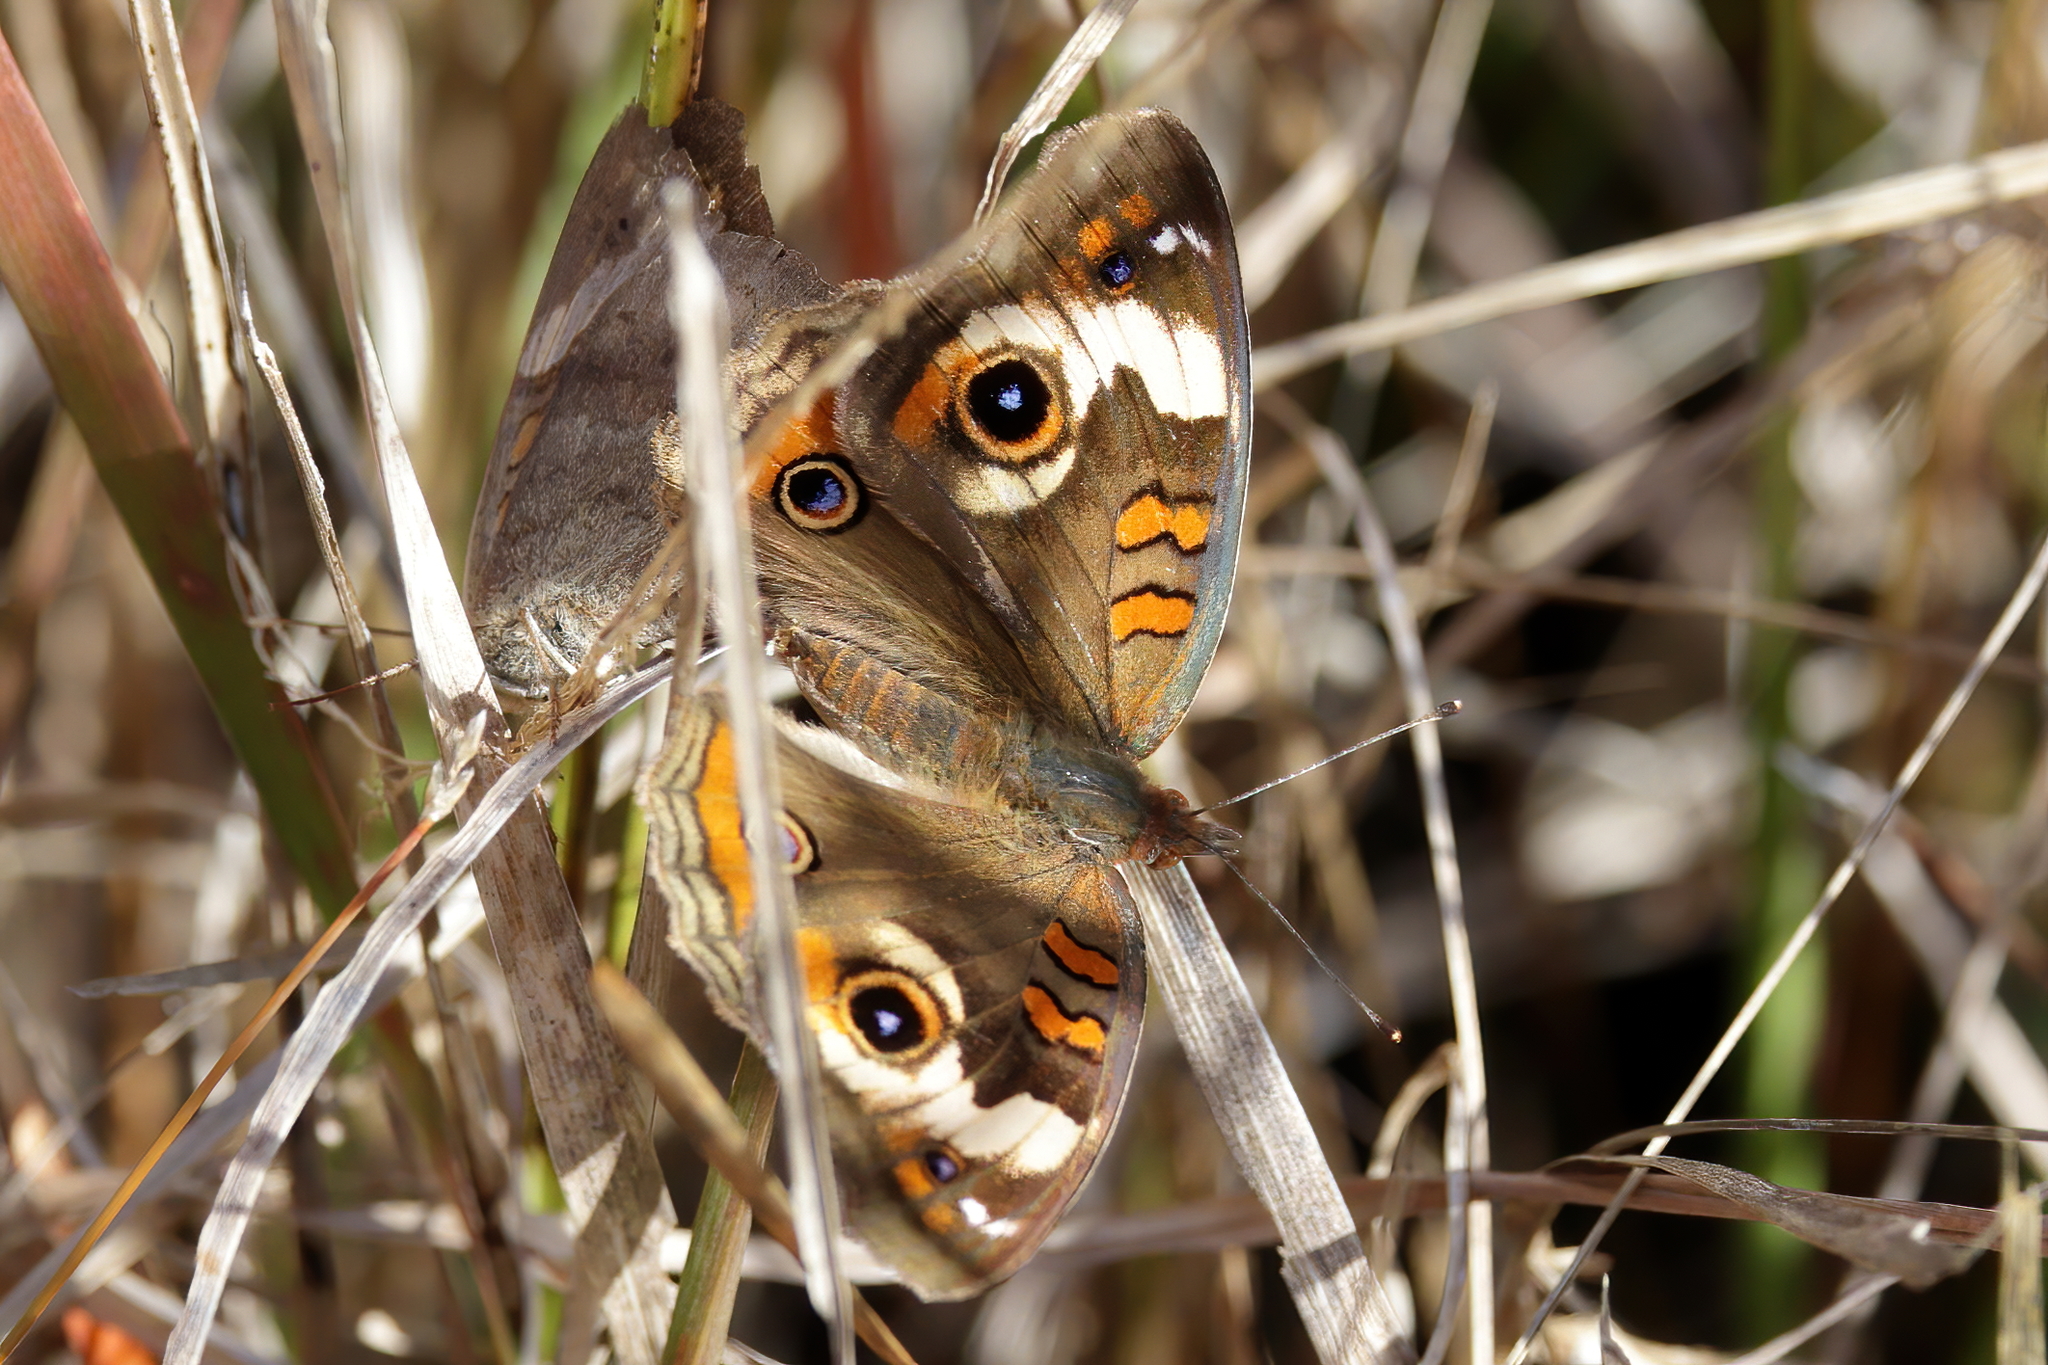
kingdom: Animalia
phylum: Arthropoda
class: Insecta
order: Lepidoptera
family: Nymphalidae
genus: Junonia
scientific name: Junonia coenia
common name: Common buckeye
